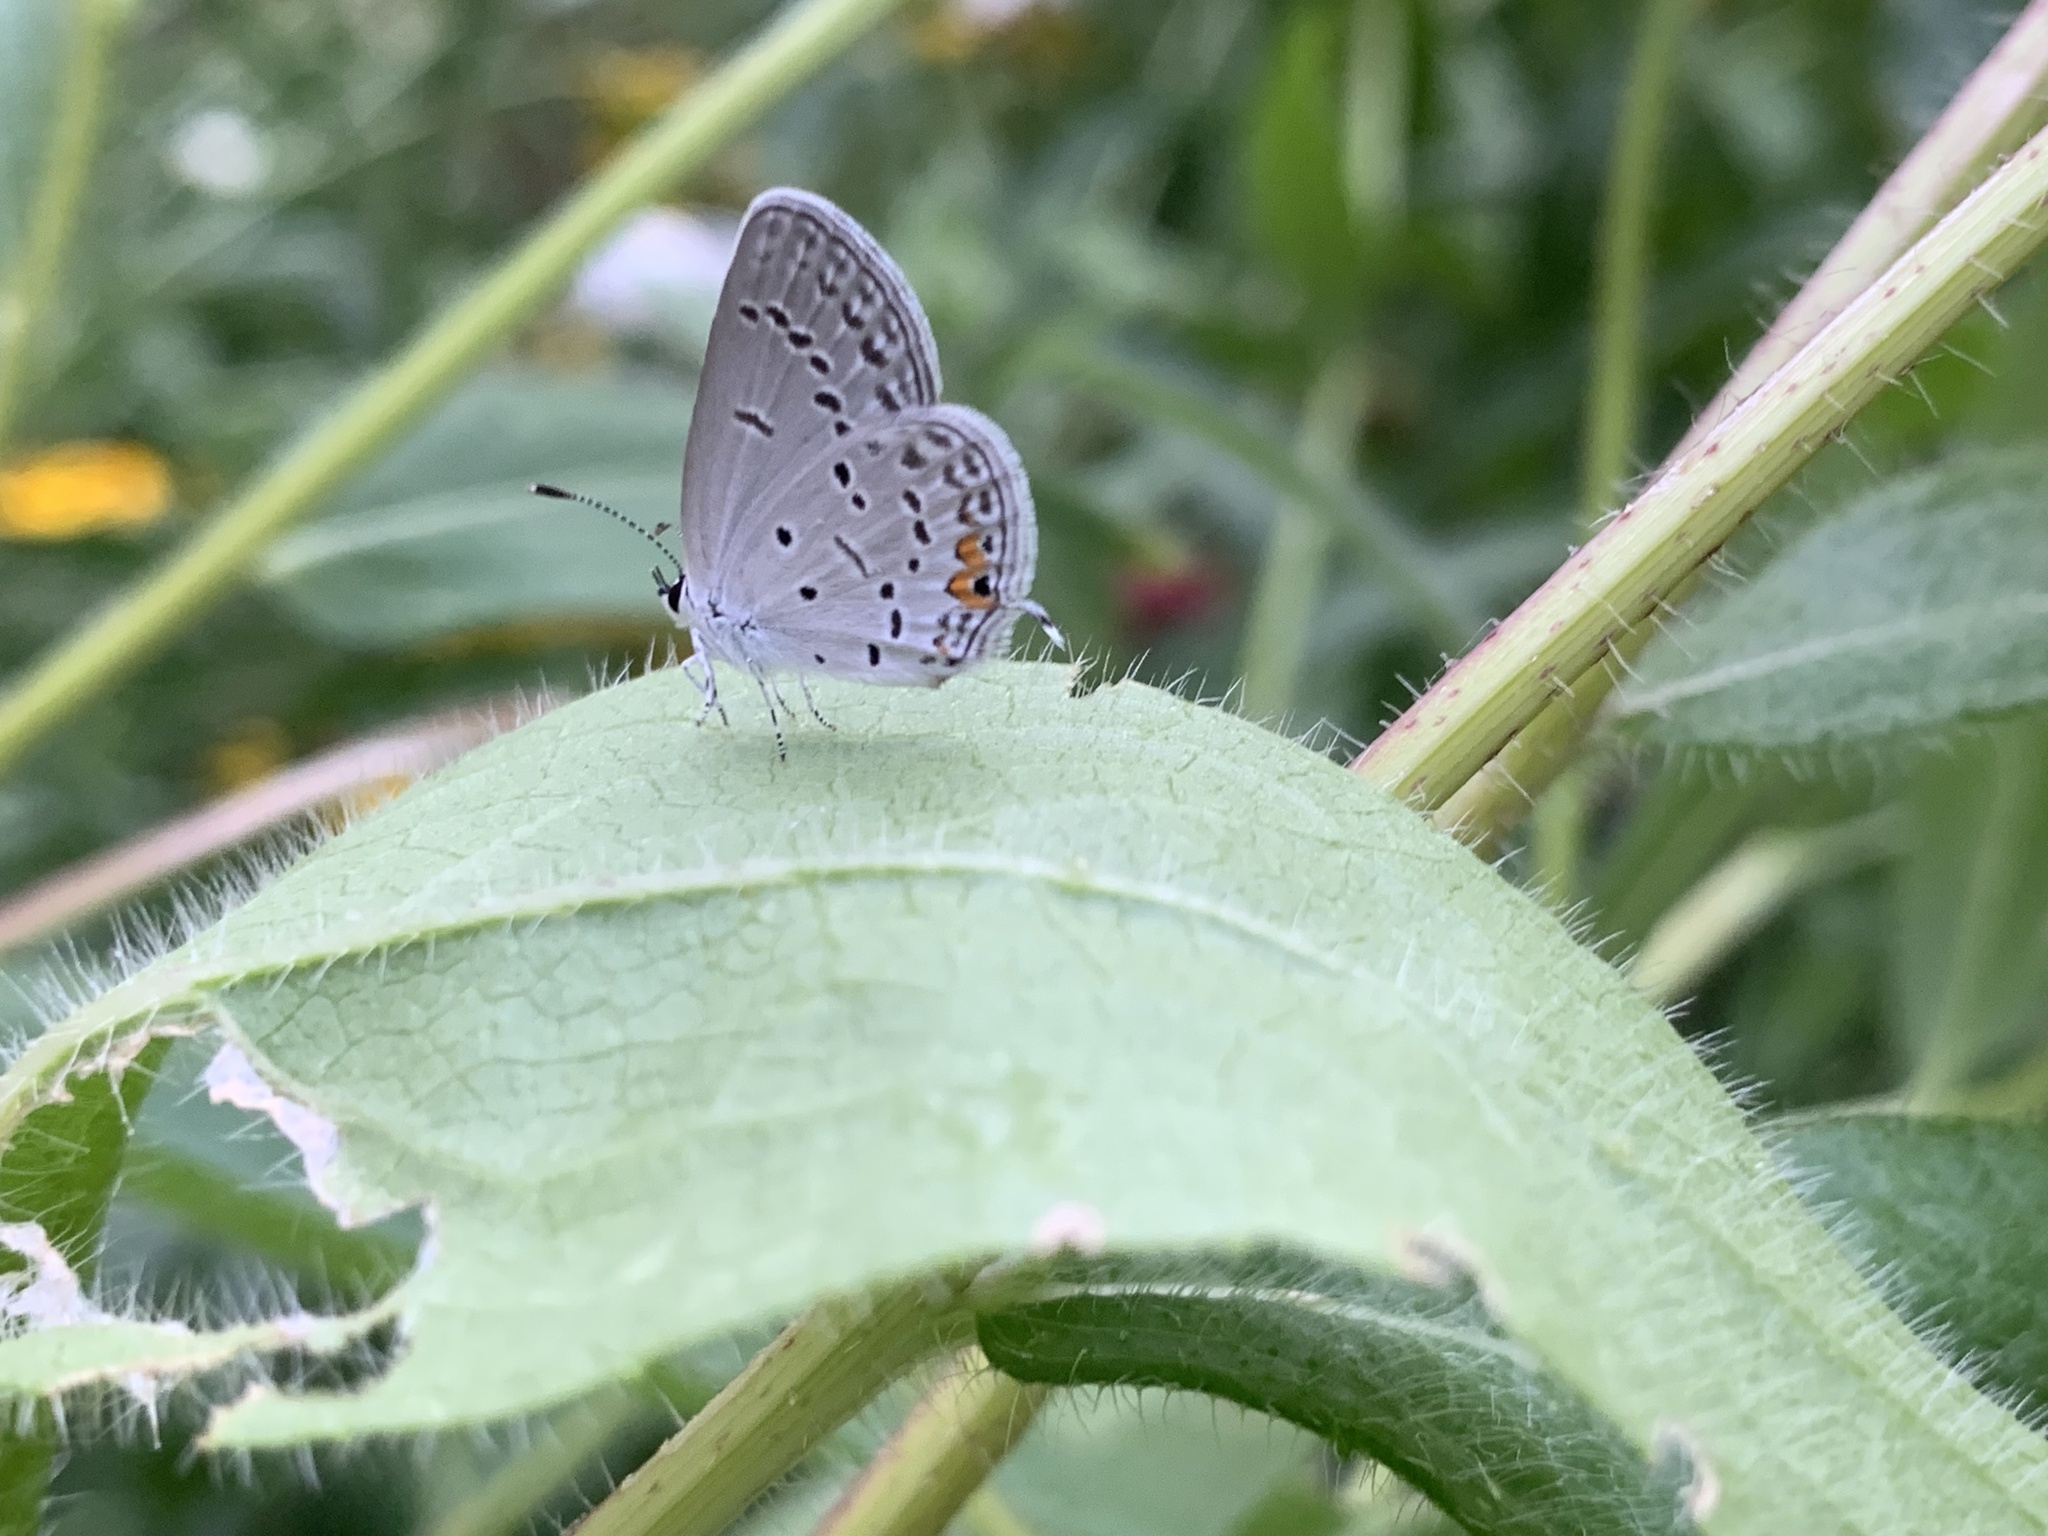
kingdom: Animalia
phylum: Arthropoda
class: Insecta
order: Lepidoptera
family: Lycaenidae
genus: Elkalyce
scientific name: Elkalyce comyntas
